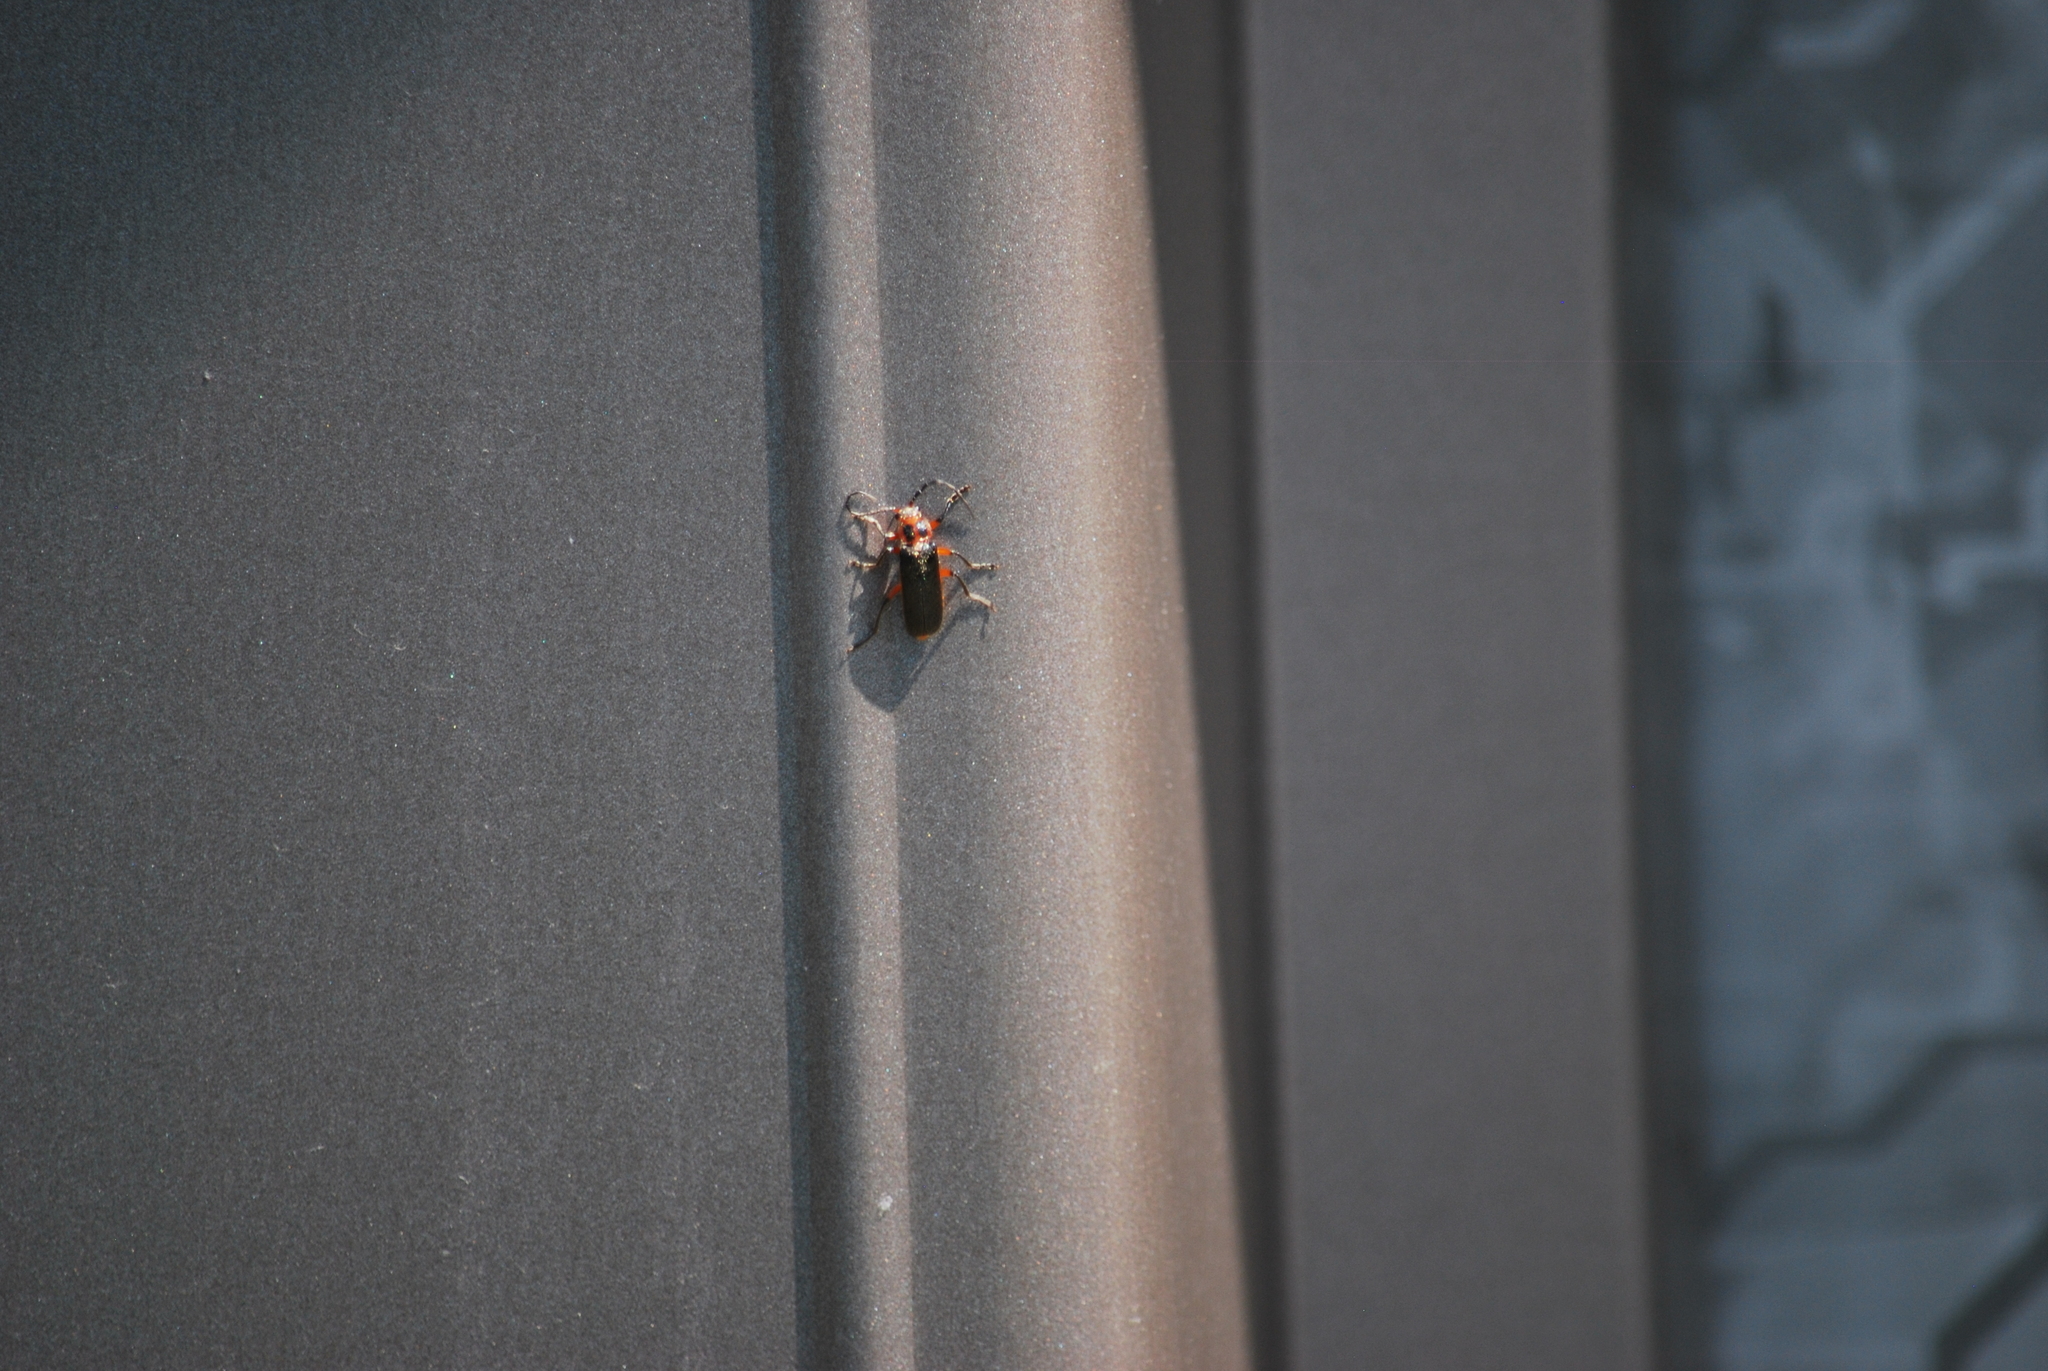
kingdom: Animalia
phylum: Arthropoda
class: Insecta
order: Coleoptera
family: Cantharidae
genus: Atalantycha
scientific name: Atalantycha bilineata
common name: Two-lined leatherwing
